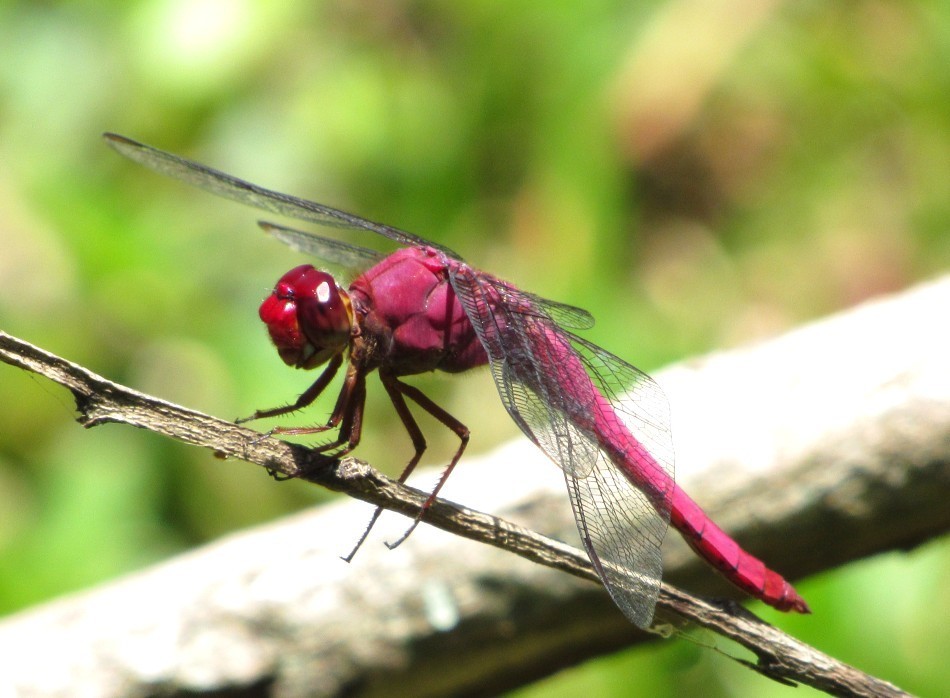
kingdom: Animalia
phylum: Arthropoda
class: Insecta
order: Odonata
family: Libellulidae
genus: Orthemis
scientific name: Orthemis discolor
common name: Carmine skimmer
